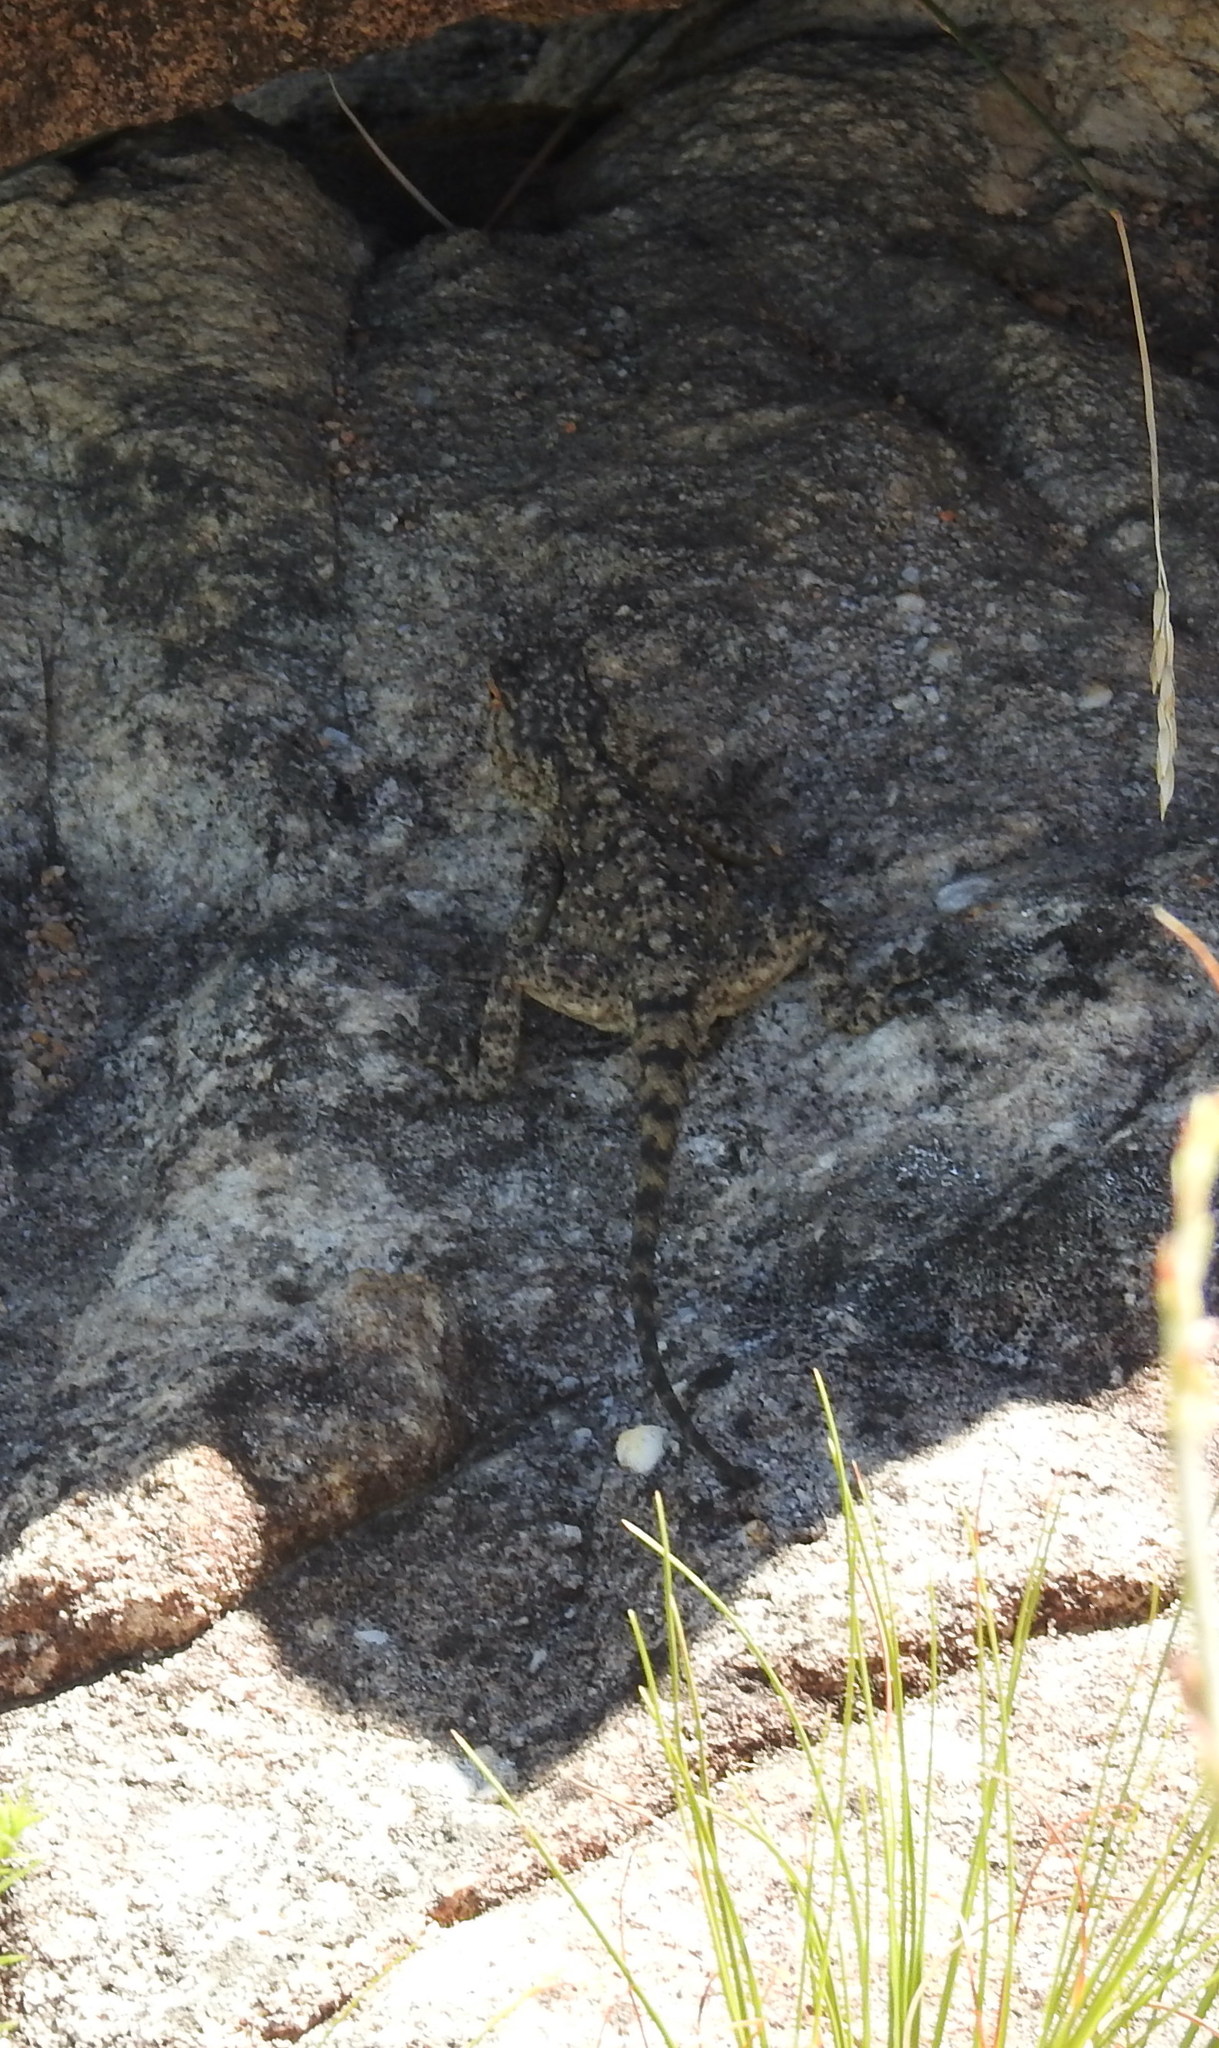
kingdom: Animalia
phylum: Chordata
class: Squamata
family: Agamidae
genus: Agama
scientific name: Agama atra
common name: Southern african rock agama
